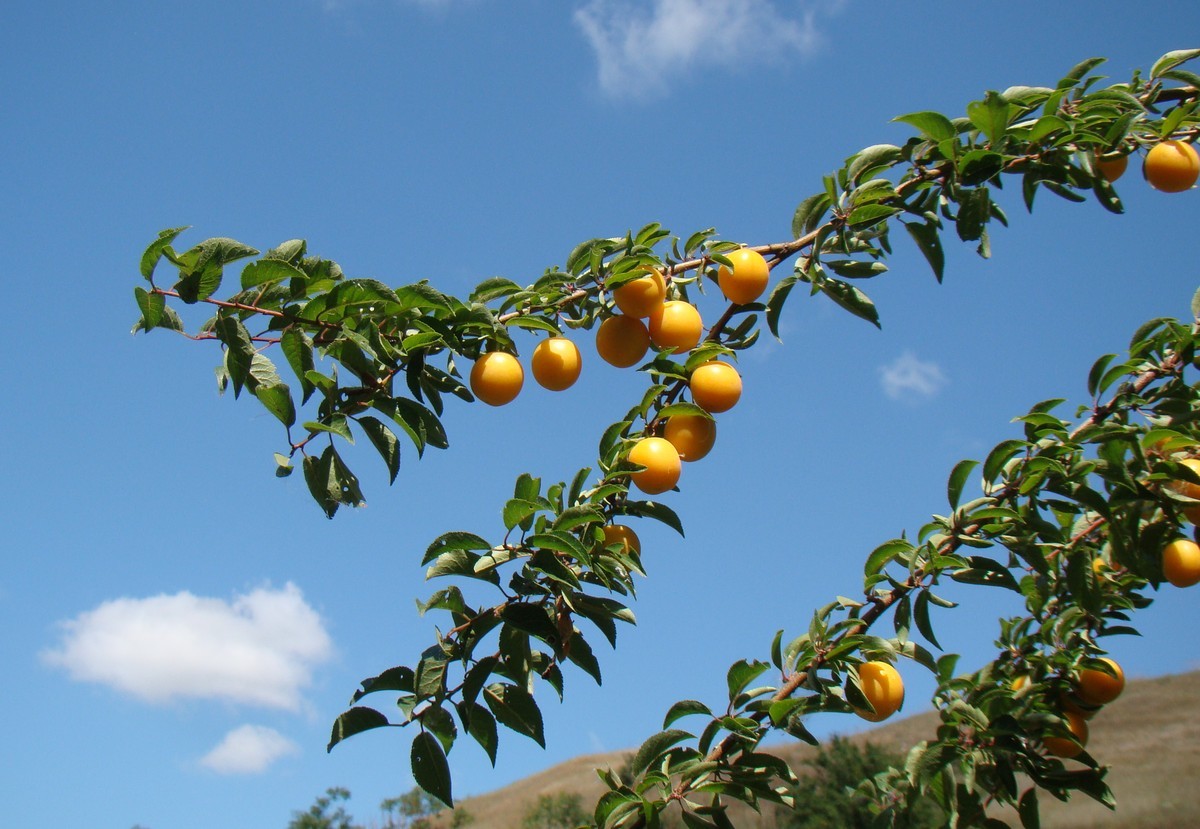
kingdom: Plantae
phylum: Tracheophyta
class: Magnoliopsida
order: Rosales
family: Rosaceae
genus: Prunus
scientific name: Prunus cerasifera
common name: Cherry plum
